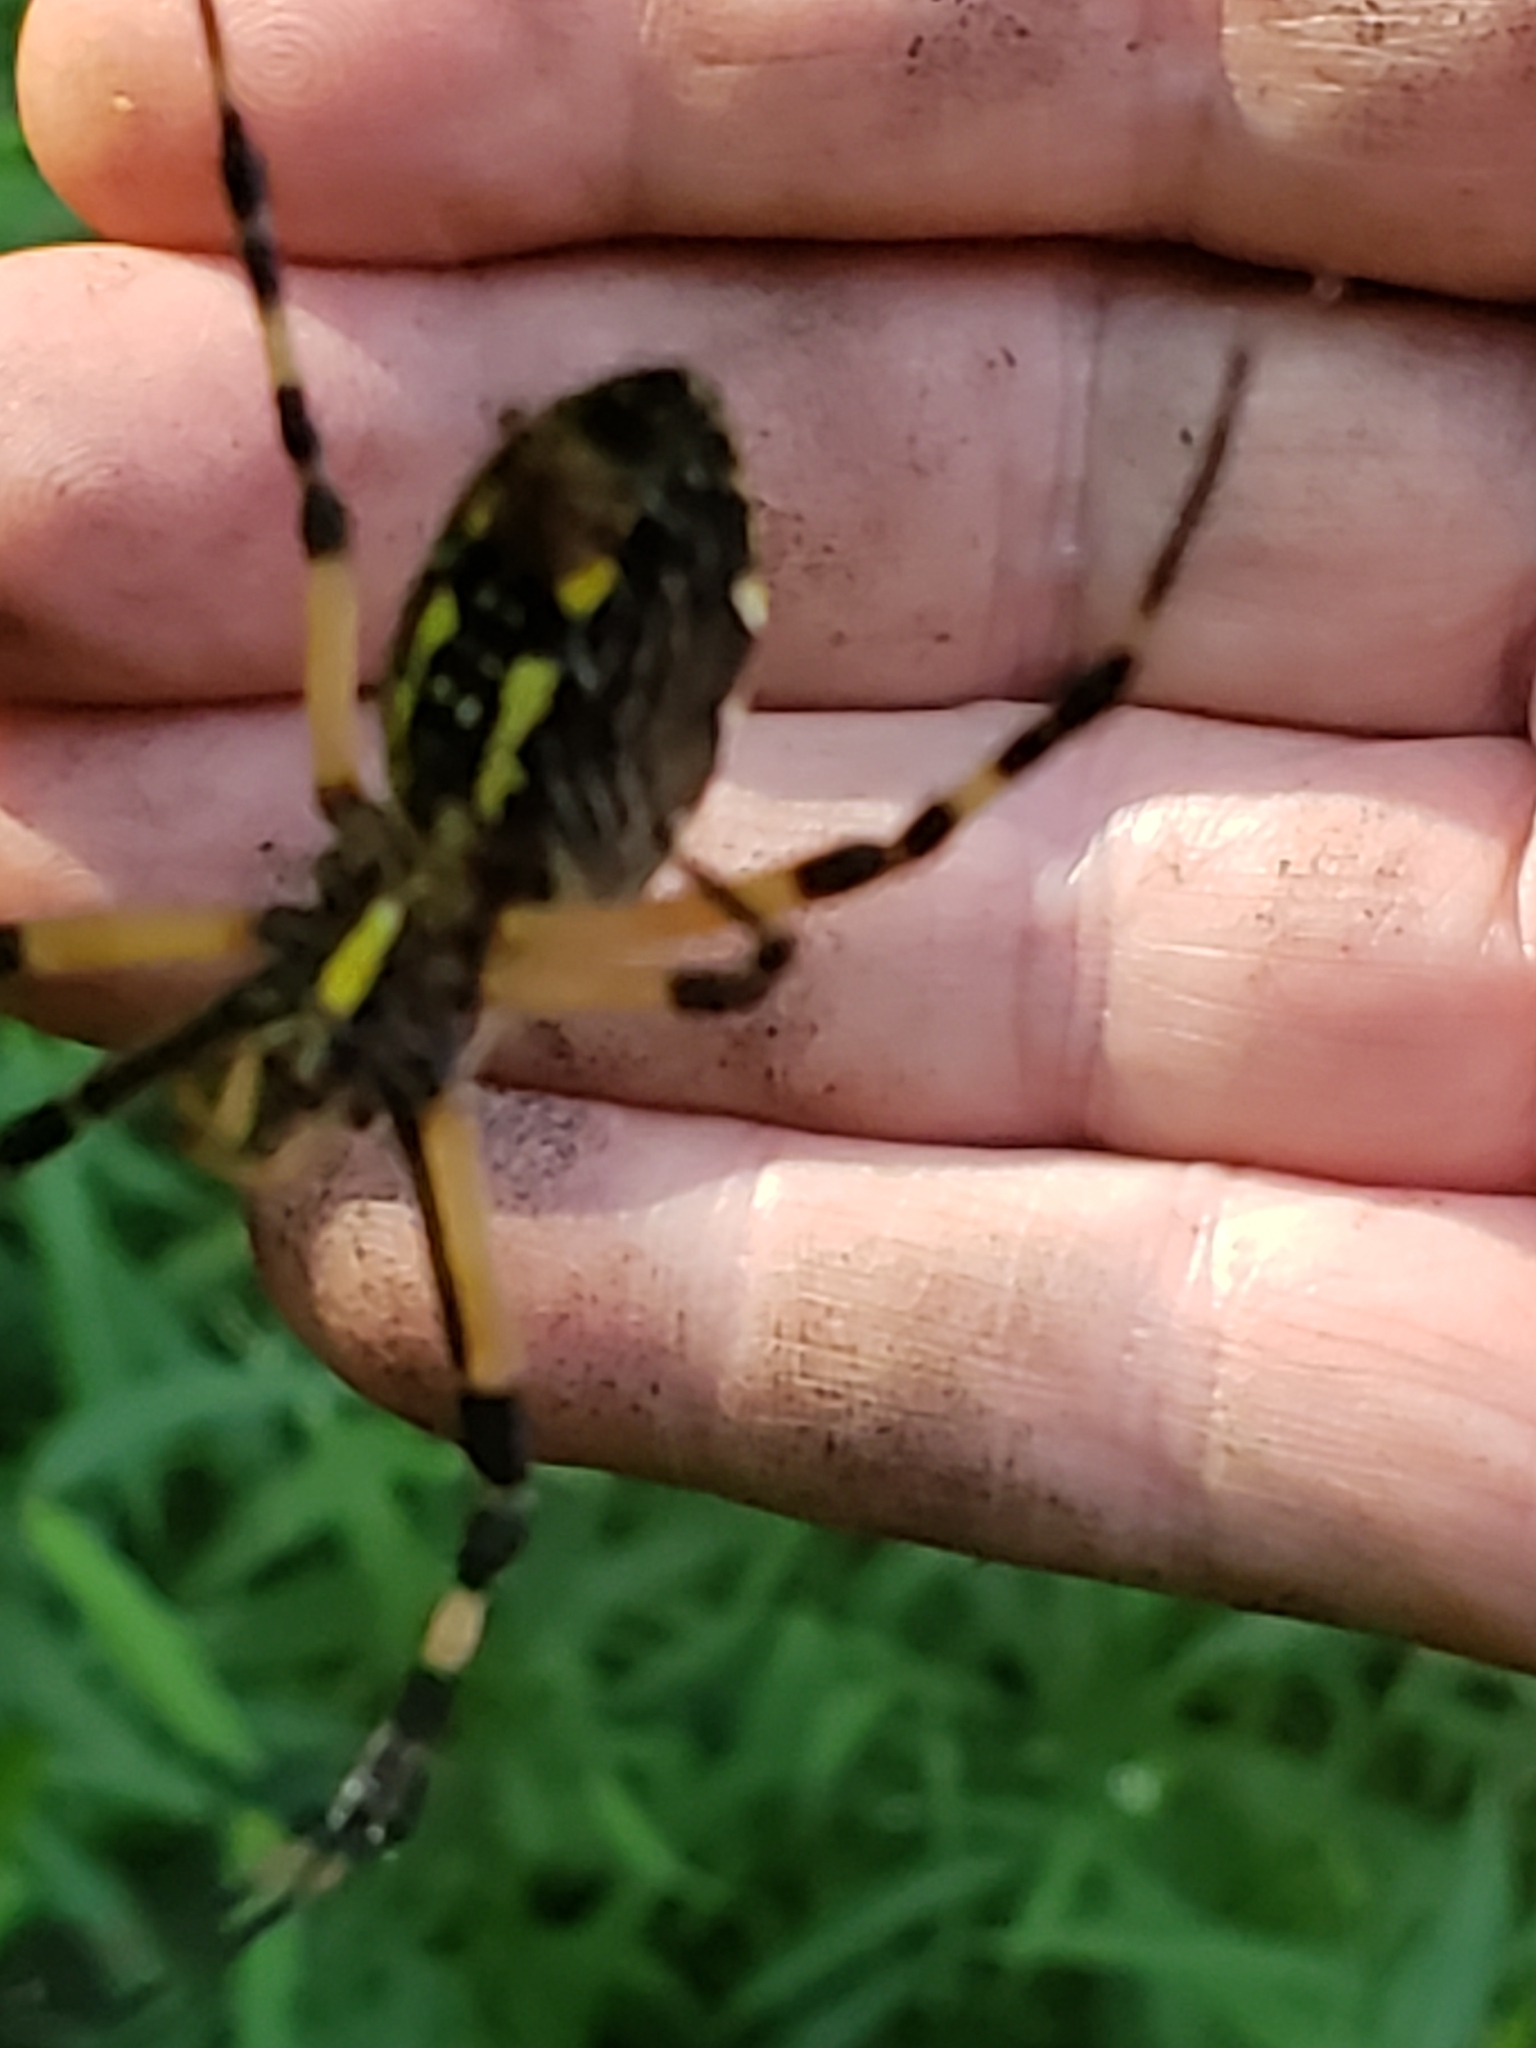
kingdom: Animalia
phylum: Arthropoda
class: Arachnida
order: Araneae
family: Araneidae
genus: Argiope
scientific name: Argiope aurantia
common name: Orb weavers
